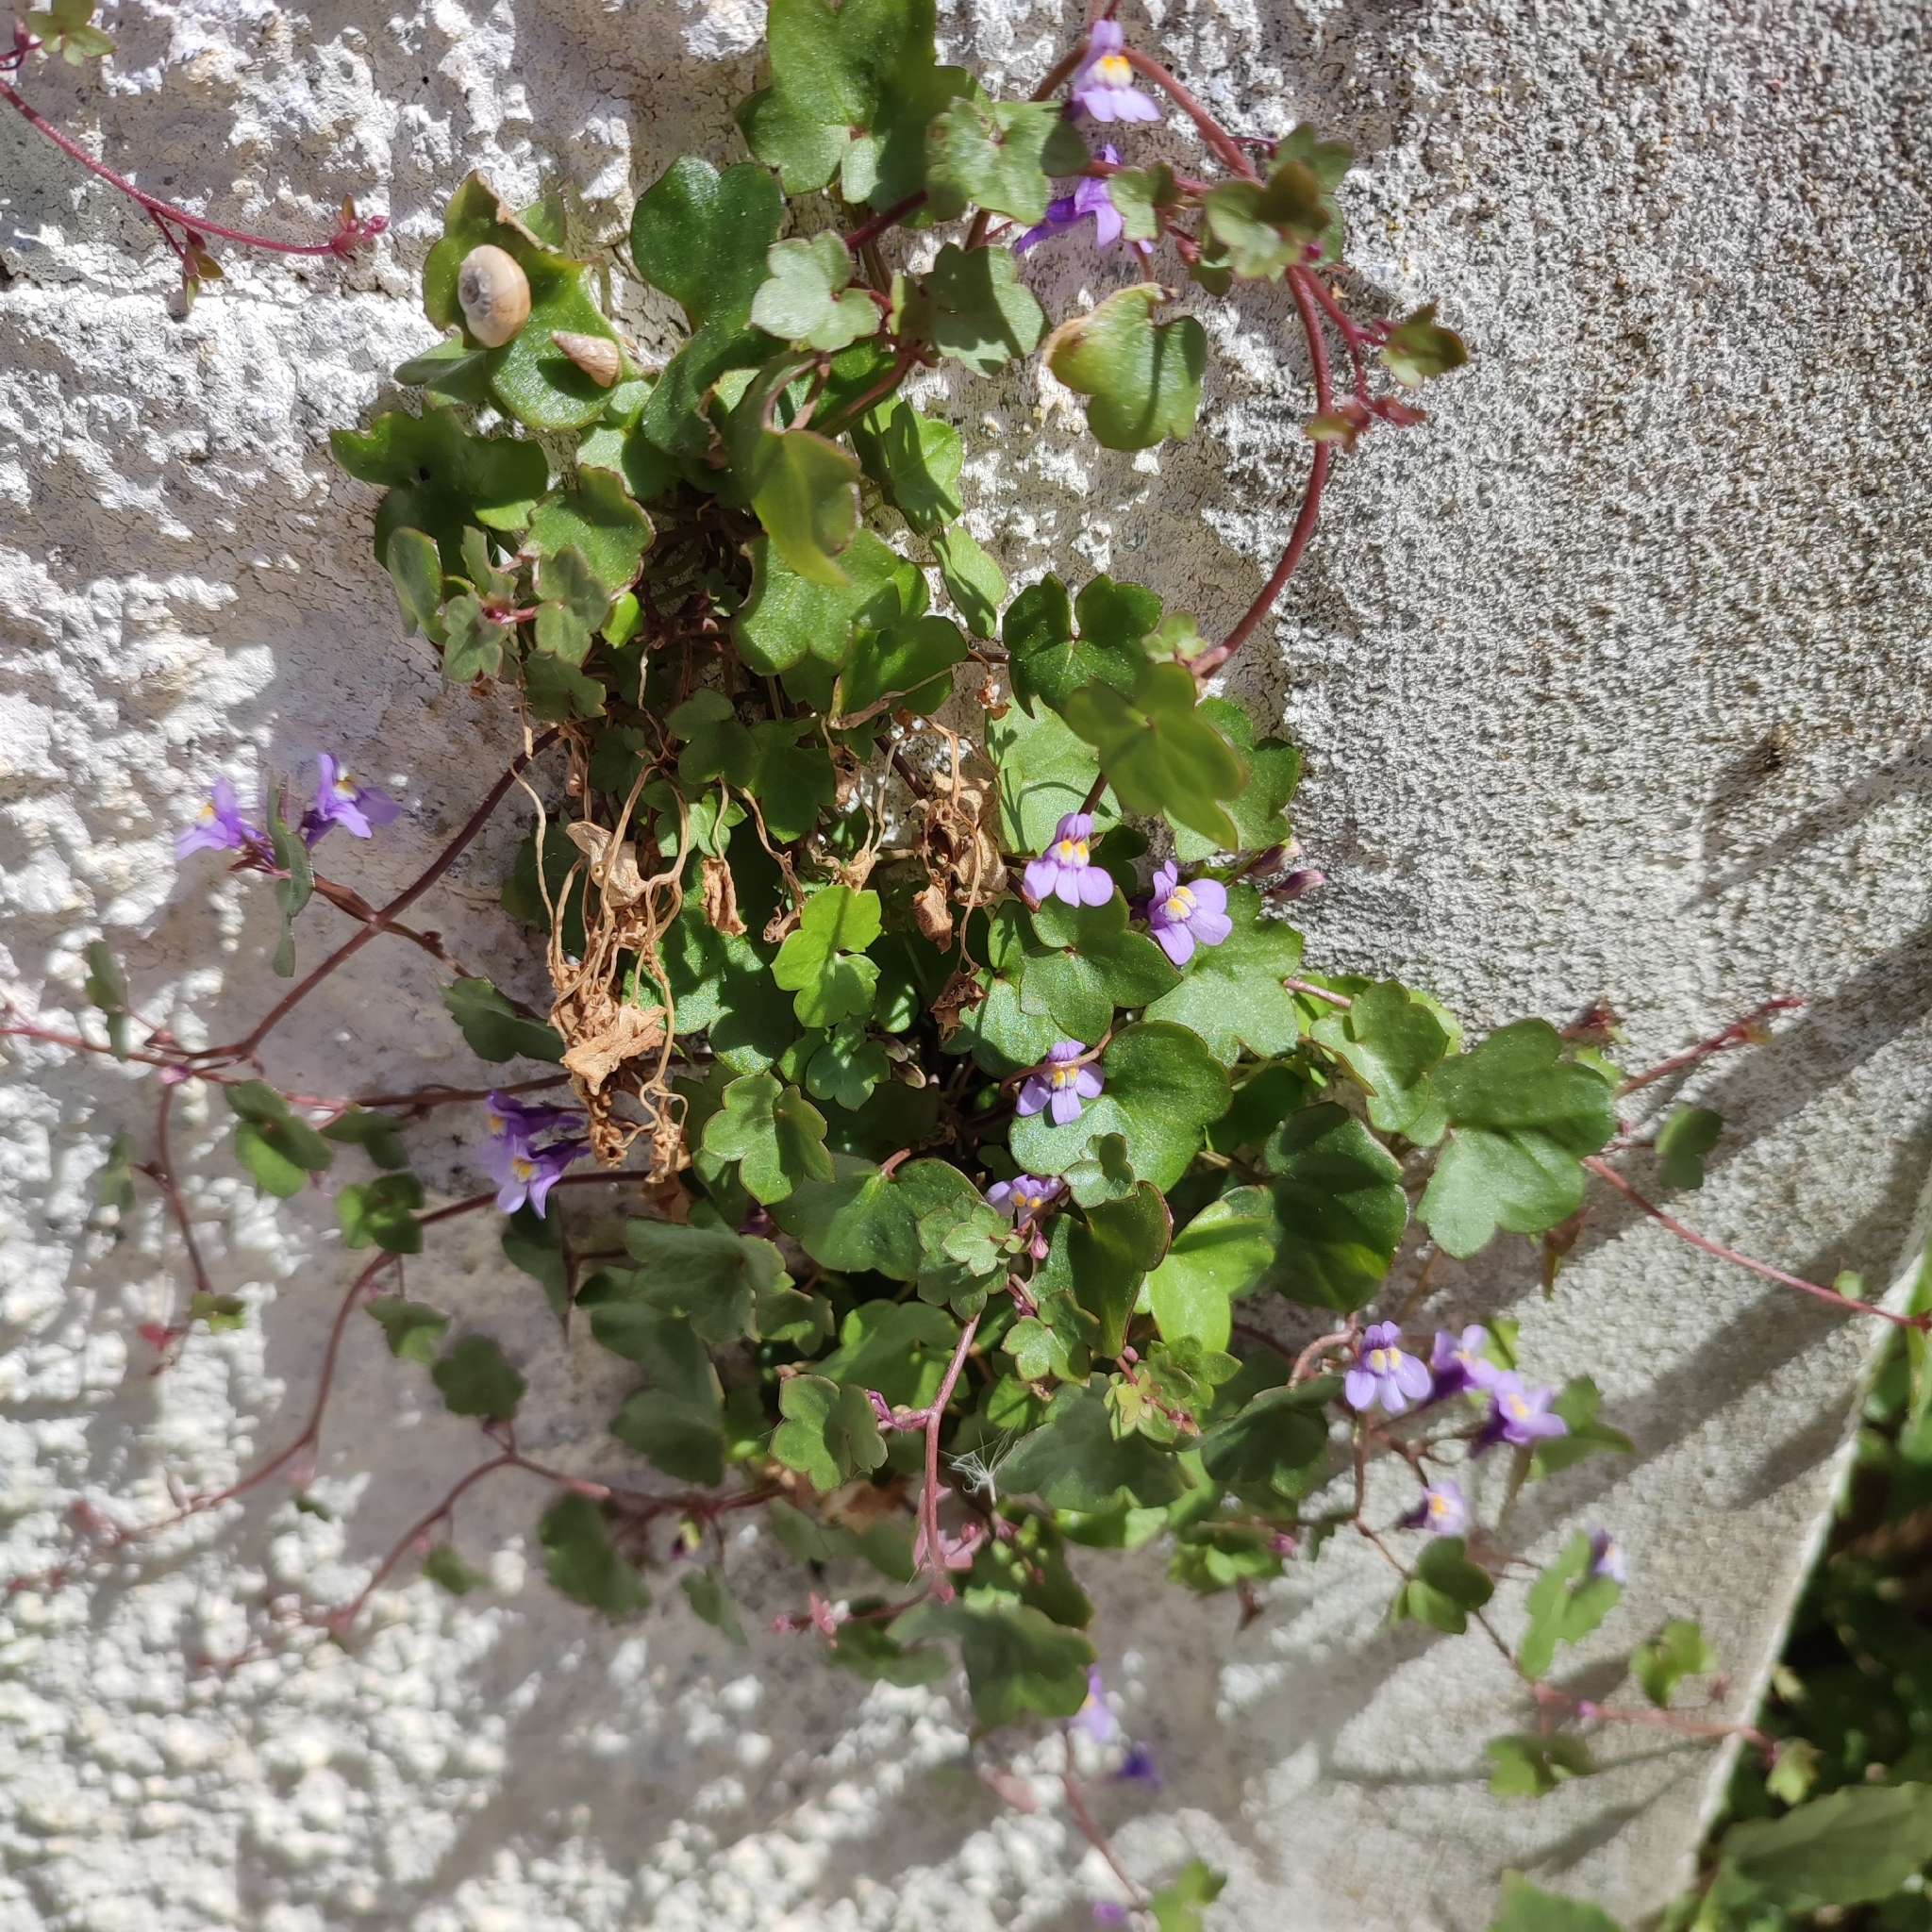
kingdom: Plantae
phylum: Tracheophyta
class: Magnoliopsida
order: Lamiales
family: Plantaginaceae
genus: Cymbalaria
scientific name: Cymbalaria muralis
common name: Ivy-leaved toadflax
